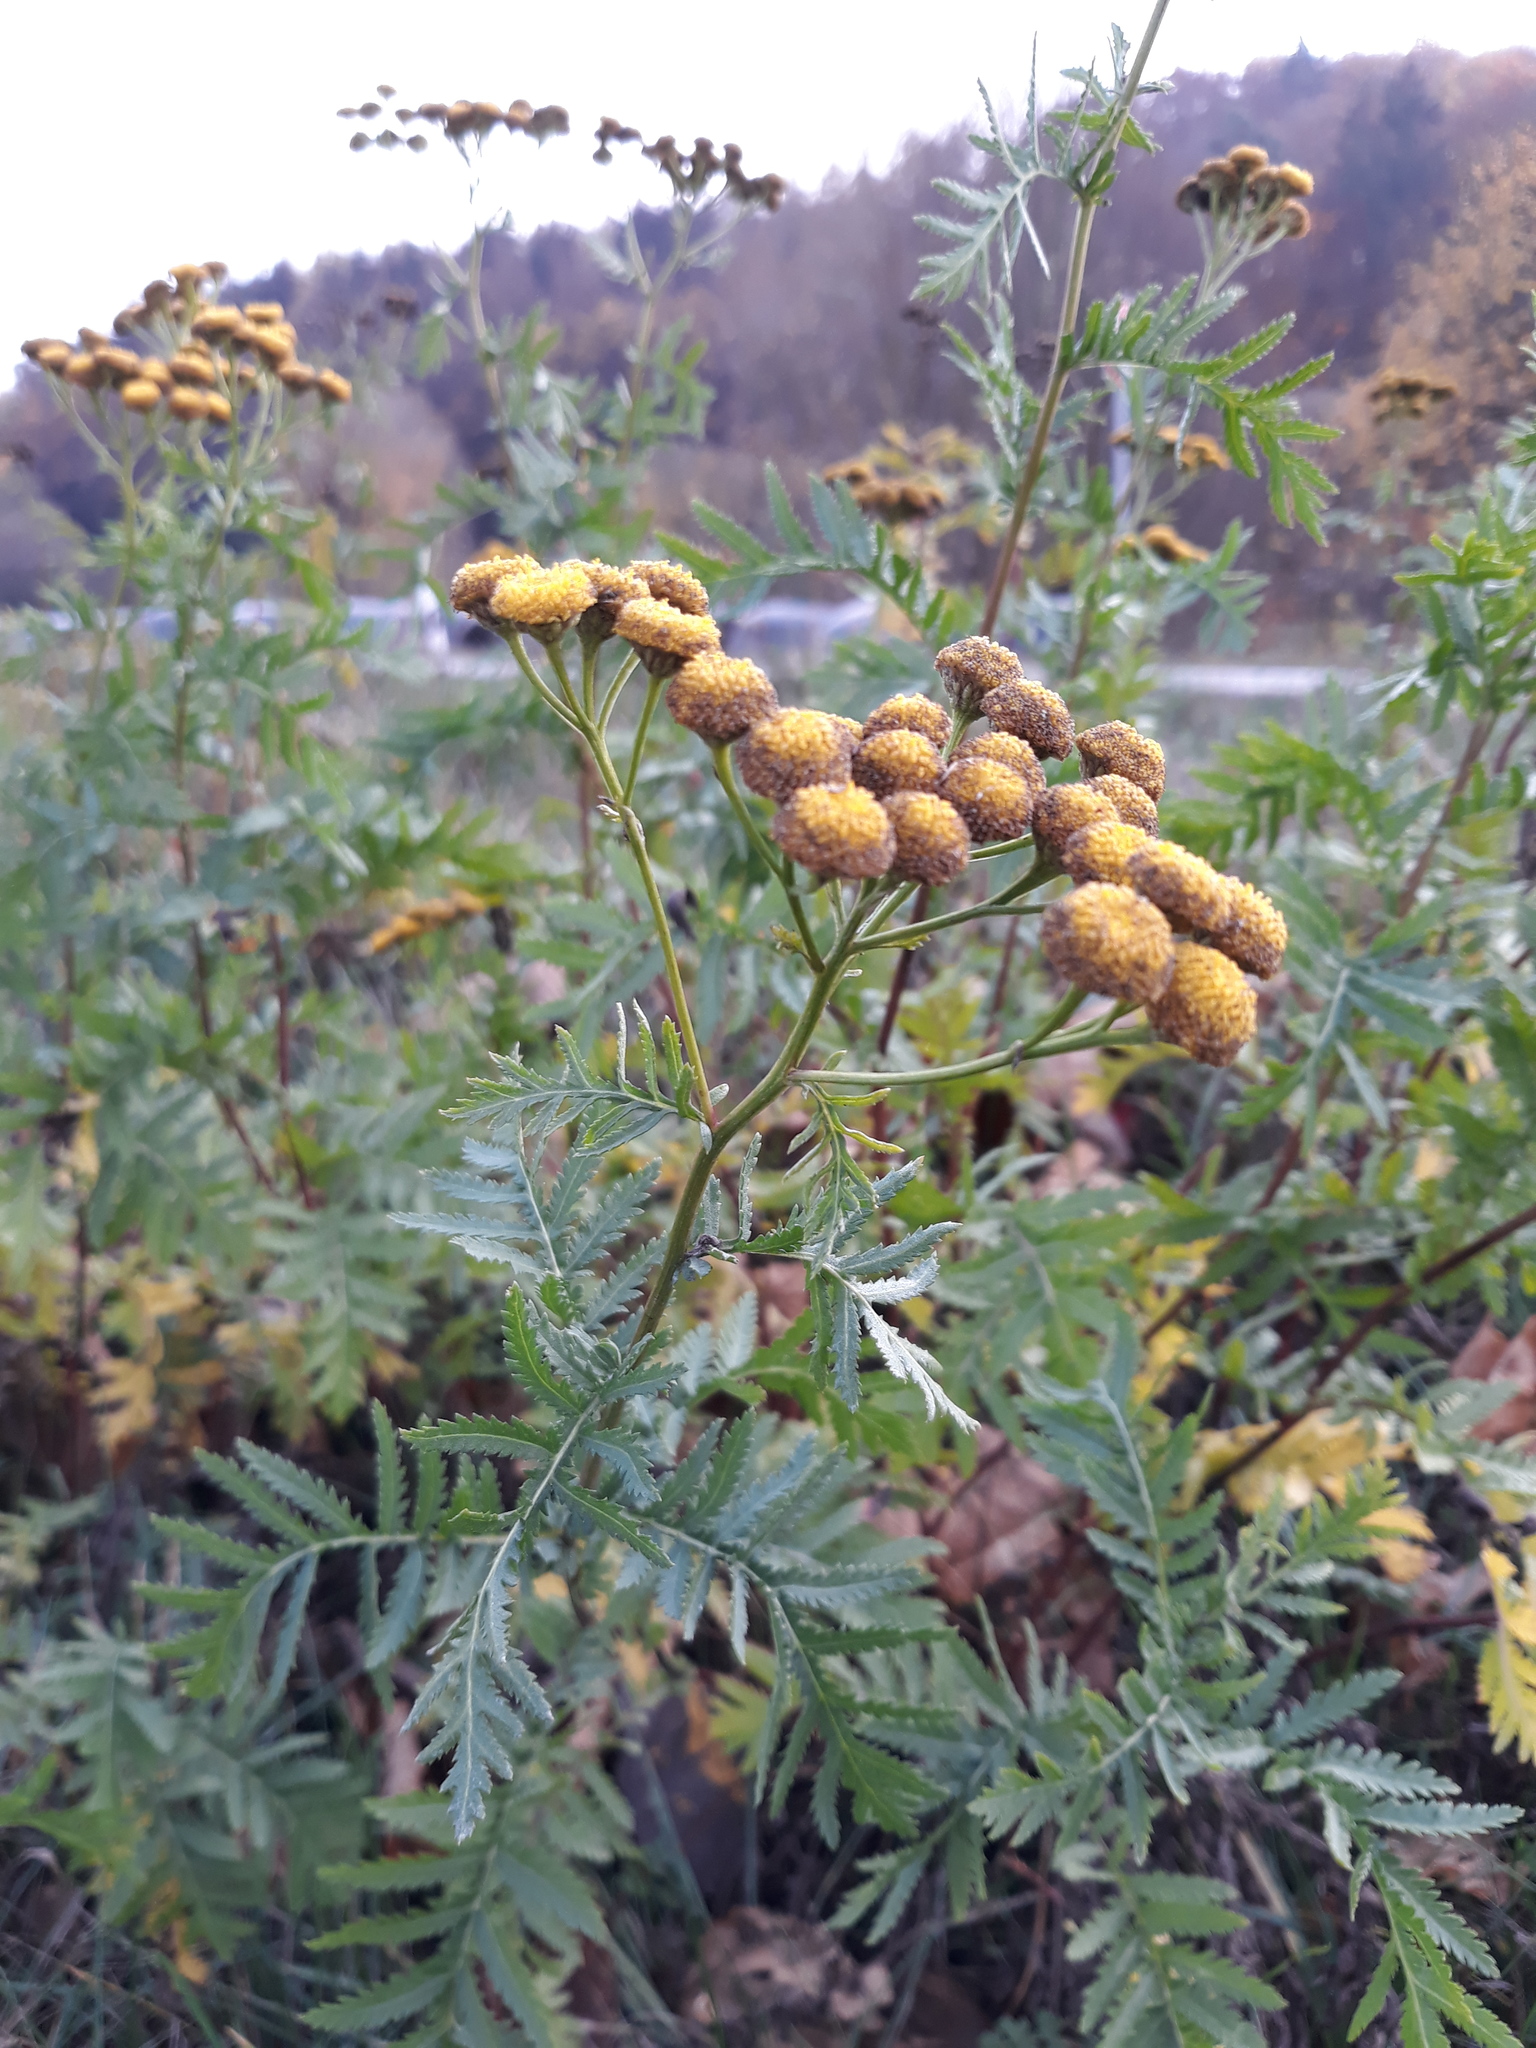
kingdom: Plantae
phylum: Tracheophyta
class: Magnoliopsida
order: Asterales
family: Asteraceae
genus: Tanacetum
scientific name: Tanacetum vulgare
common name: Common tansy
